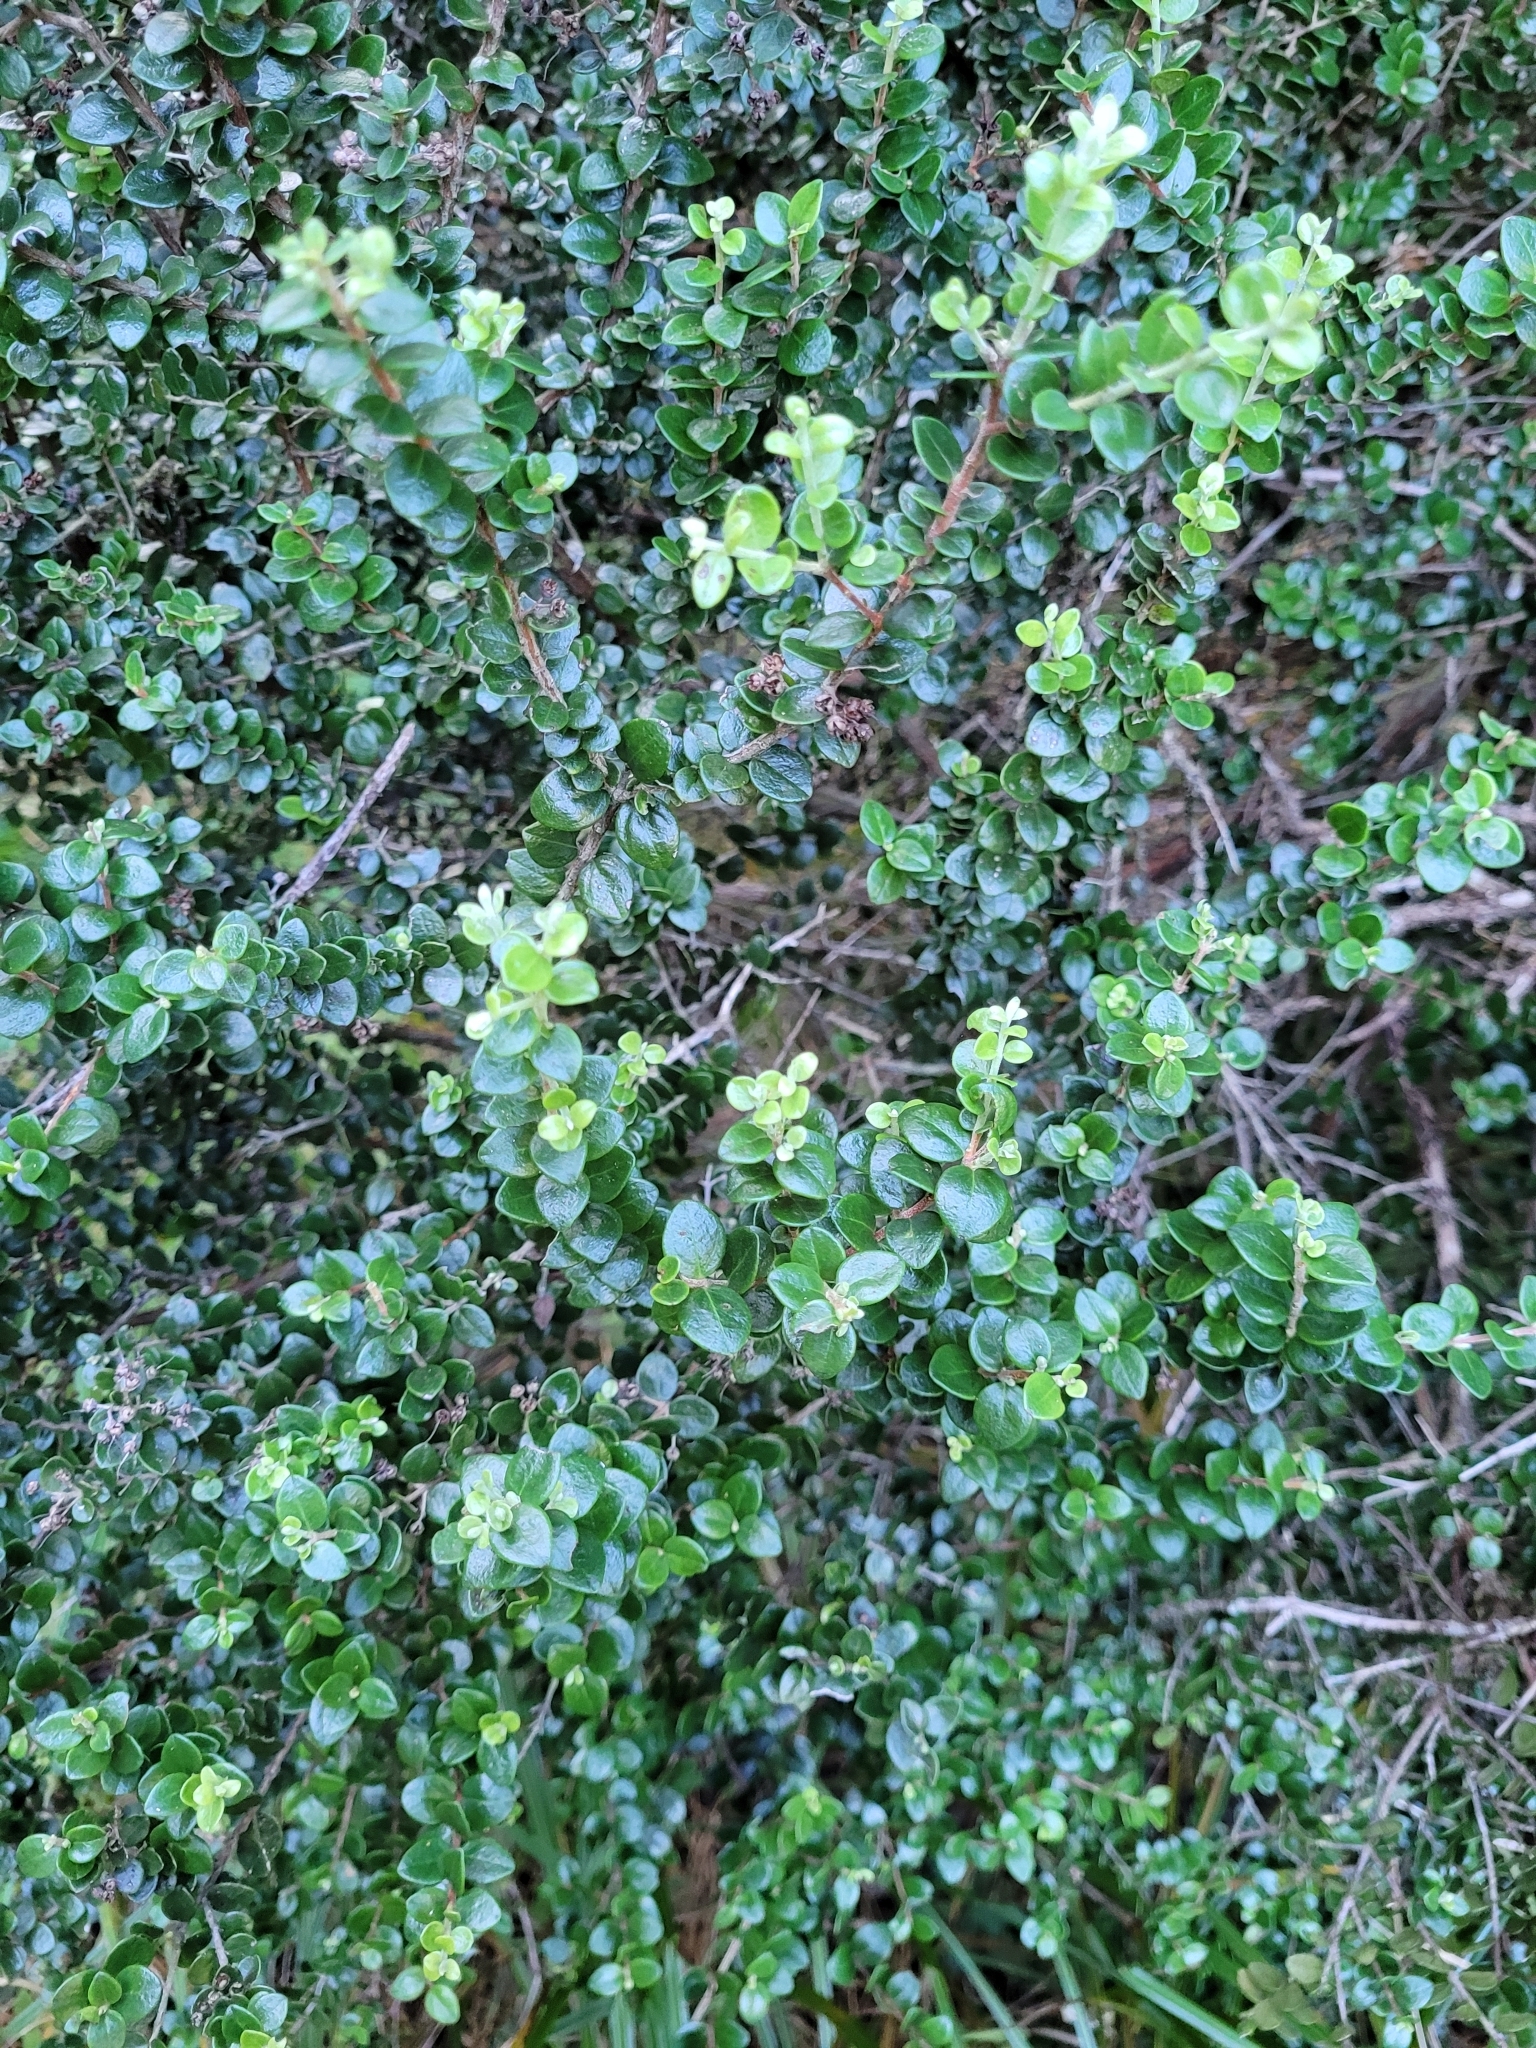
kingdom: Plantae
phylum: Tracheophyta
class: Magnoliopsida
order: Myrtales
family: Myrtaceae
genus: Metrosideros
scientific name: Metrosideros perforata
